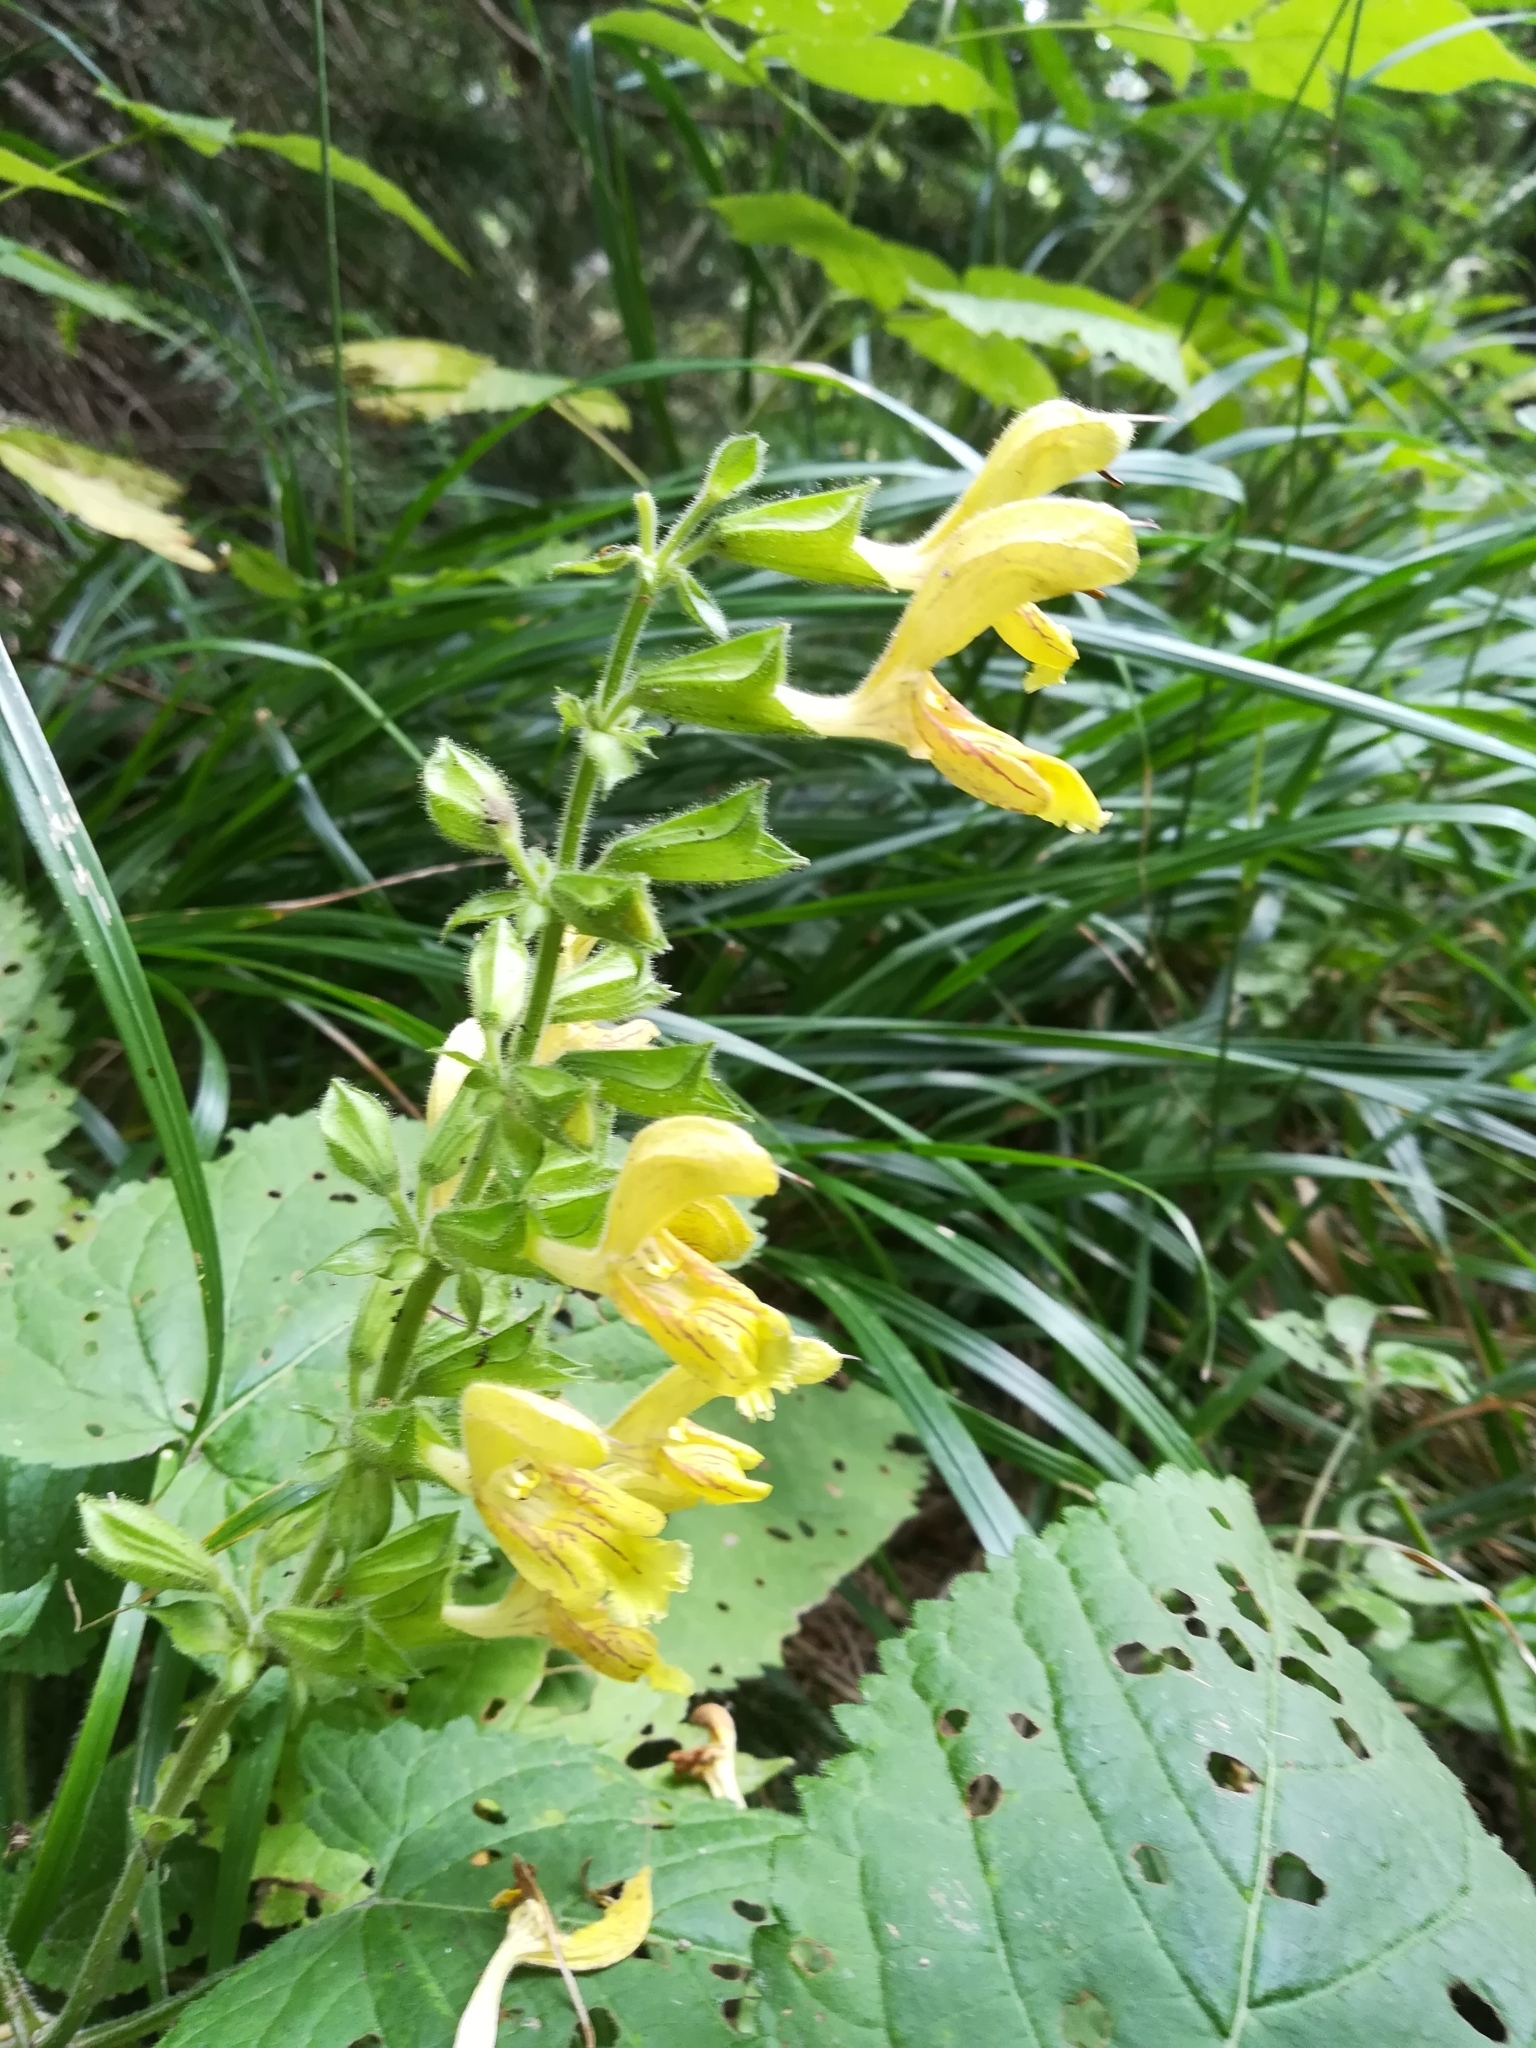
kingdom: Plantae
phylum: Tracheophyta
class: Magnoliopsida
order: Lamiales
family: Lamiaceae
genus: Salvia
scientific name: Salvia glutinosa
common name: Sticky clary
